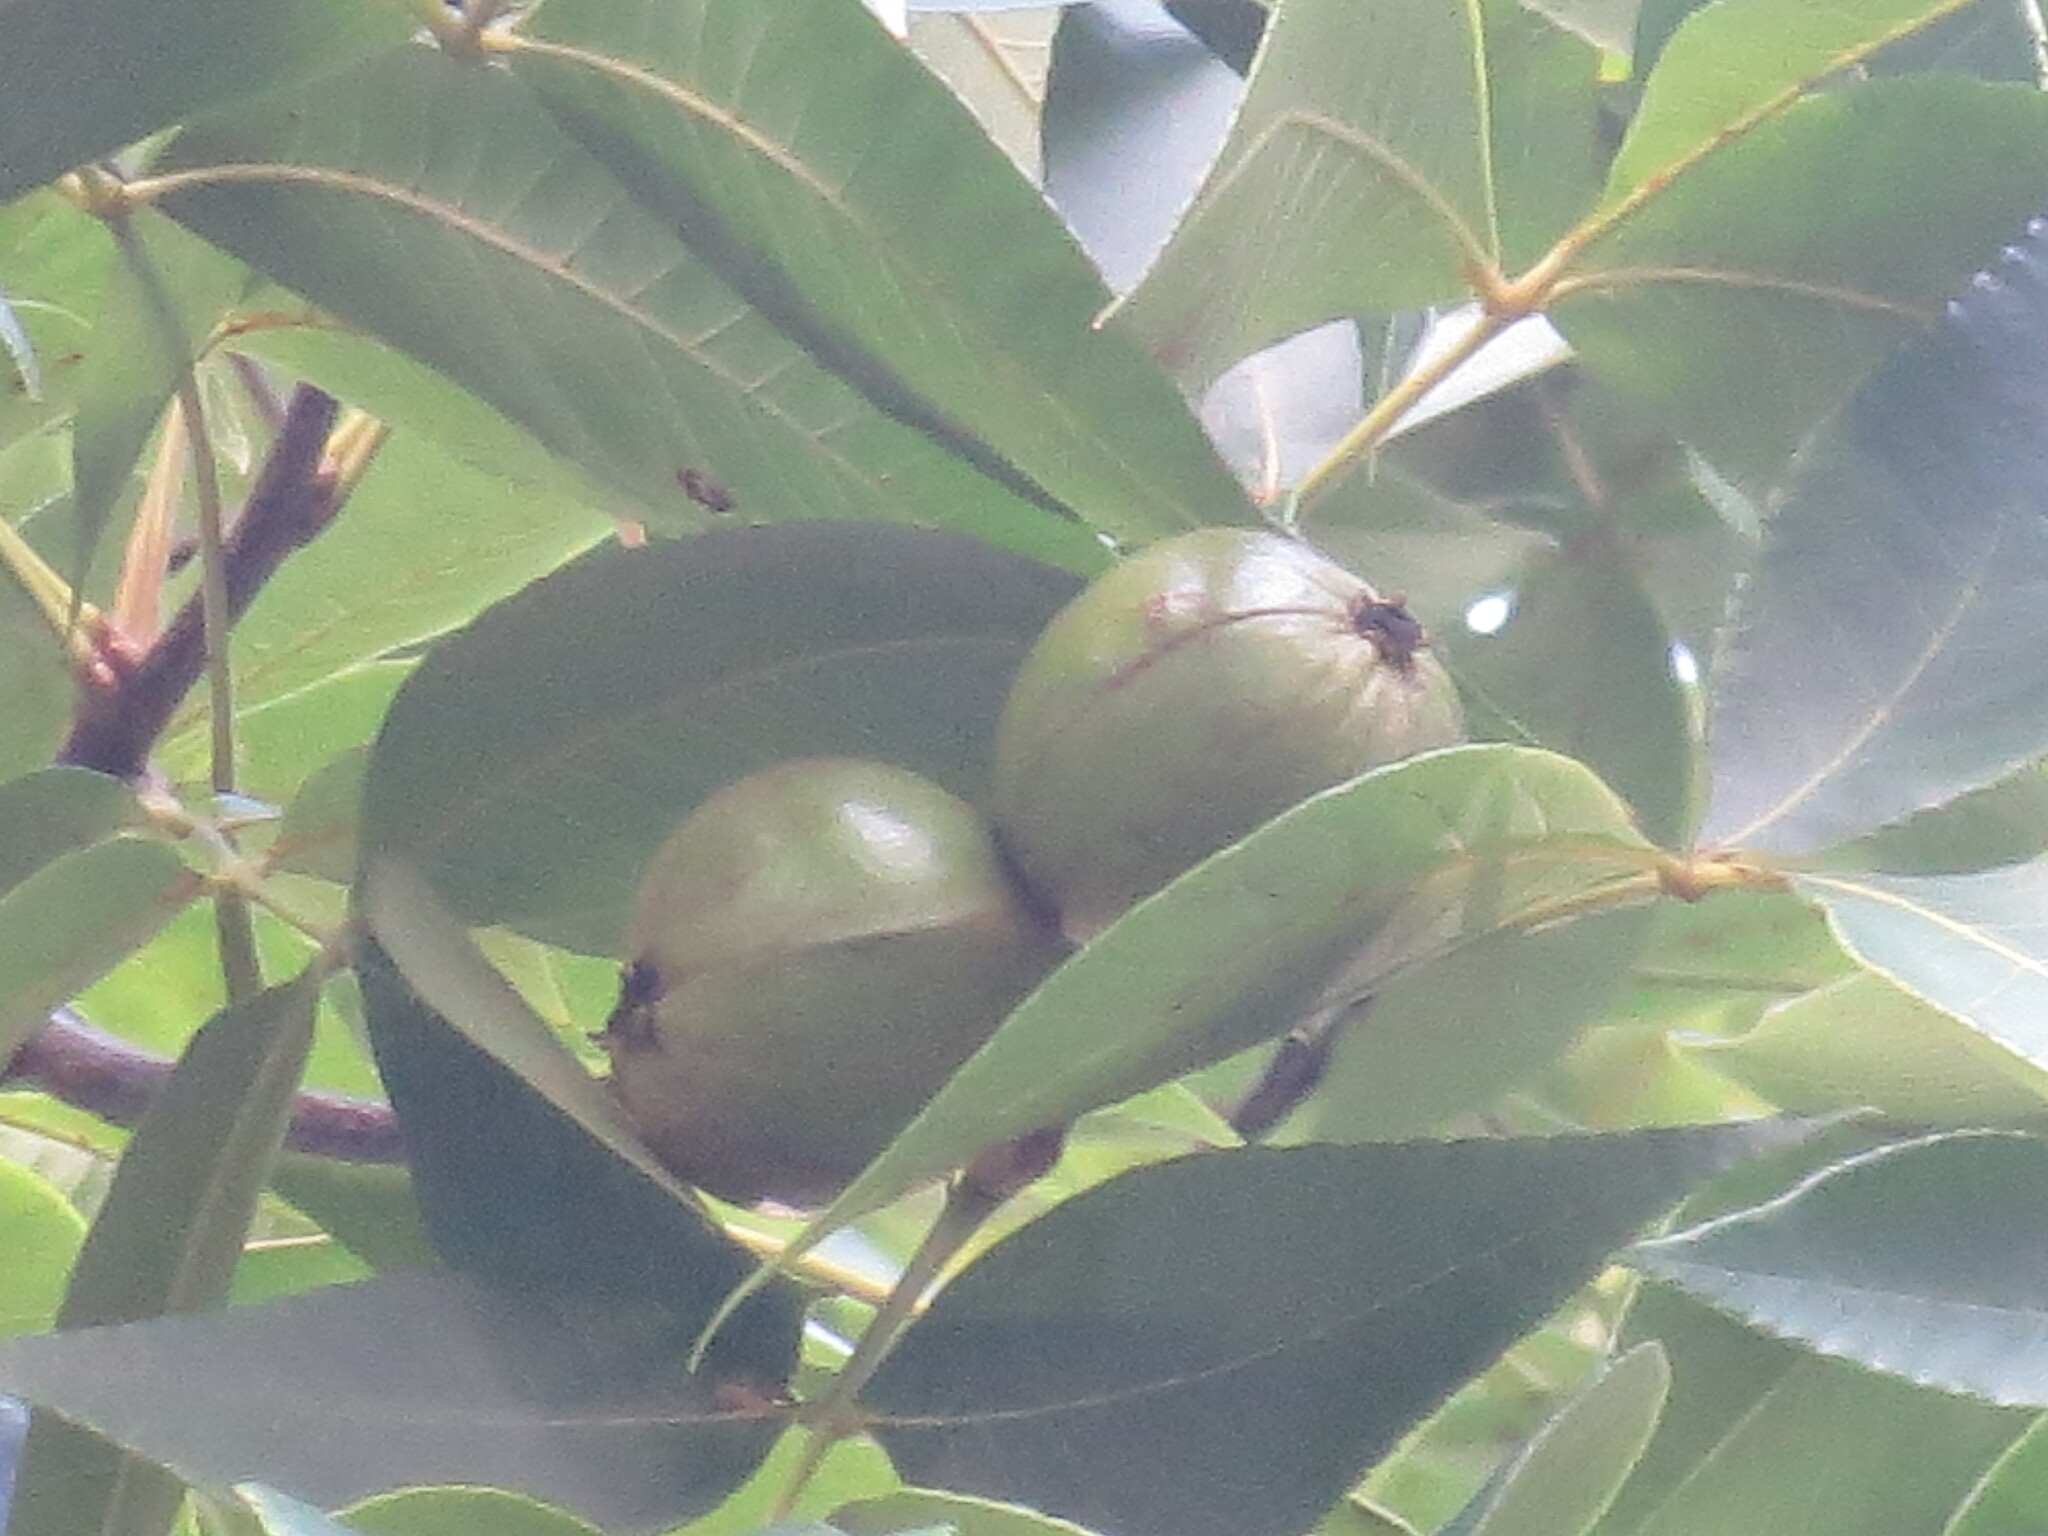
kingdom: Plantae
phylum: Tracheophyta
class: Magnoliopsida
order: Fagales
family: Juglandaceae
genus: Carya
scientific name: Carya alba
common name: Mockernut hickory
